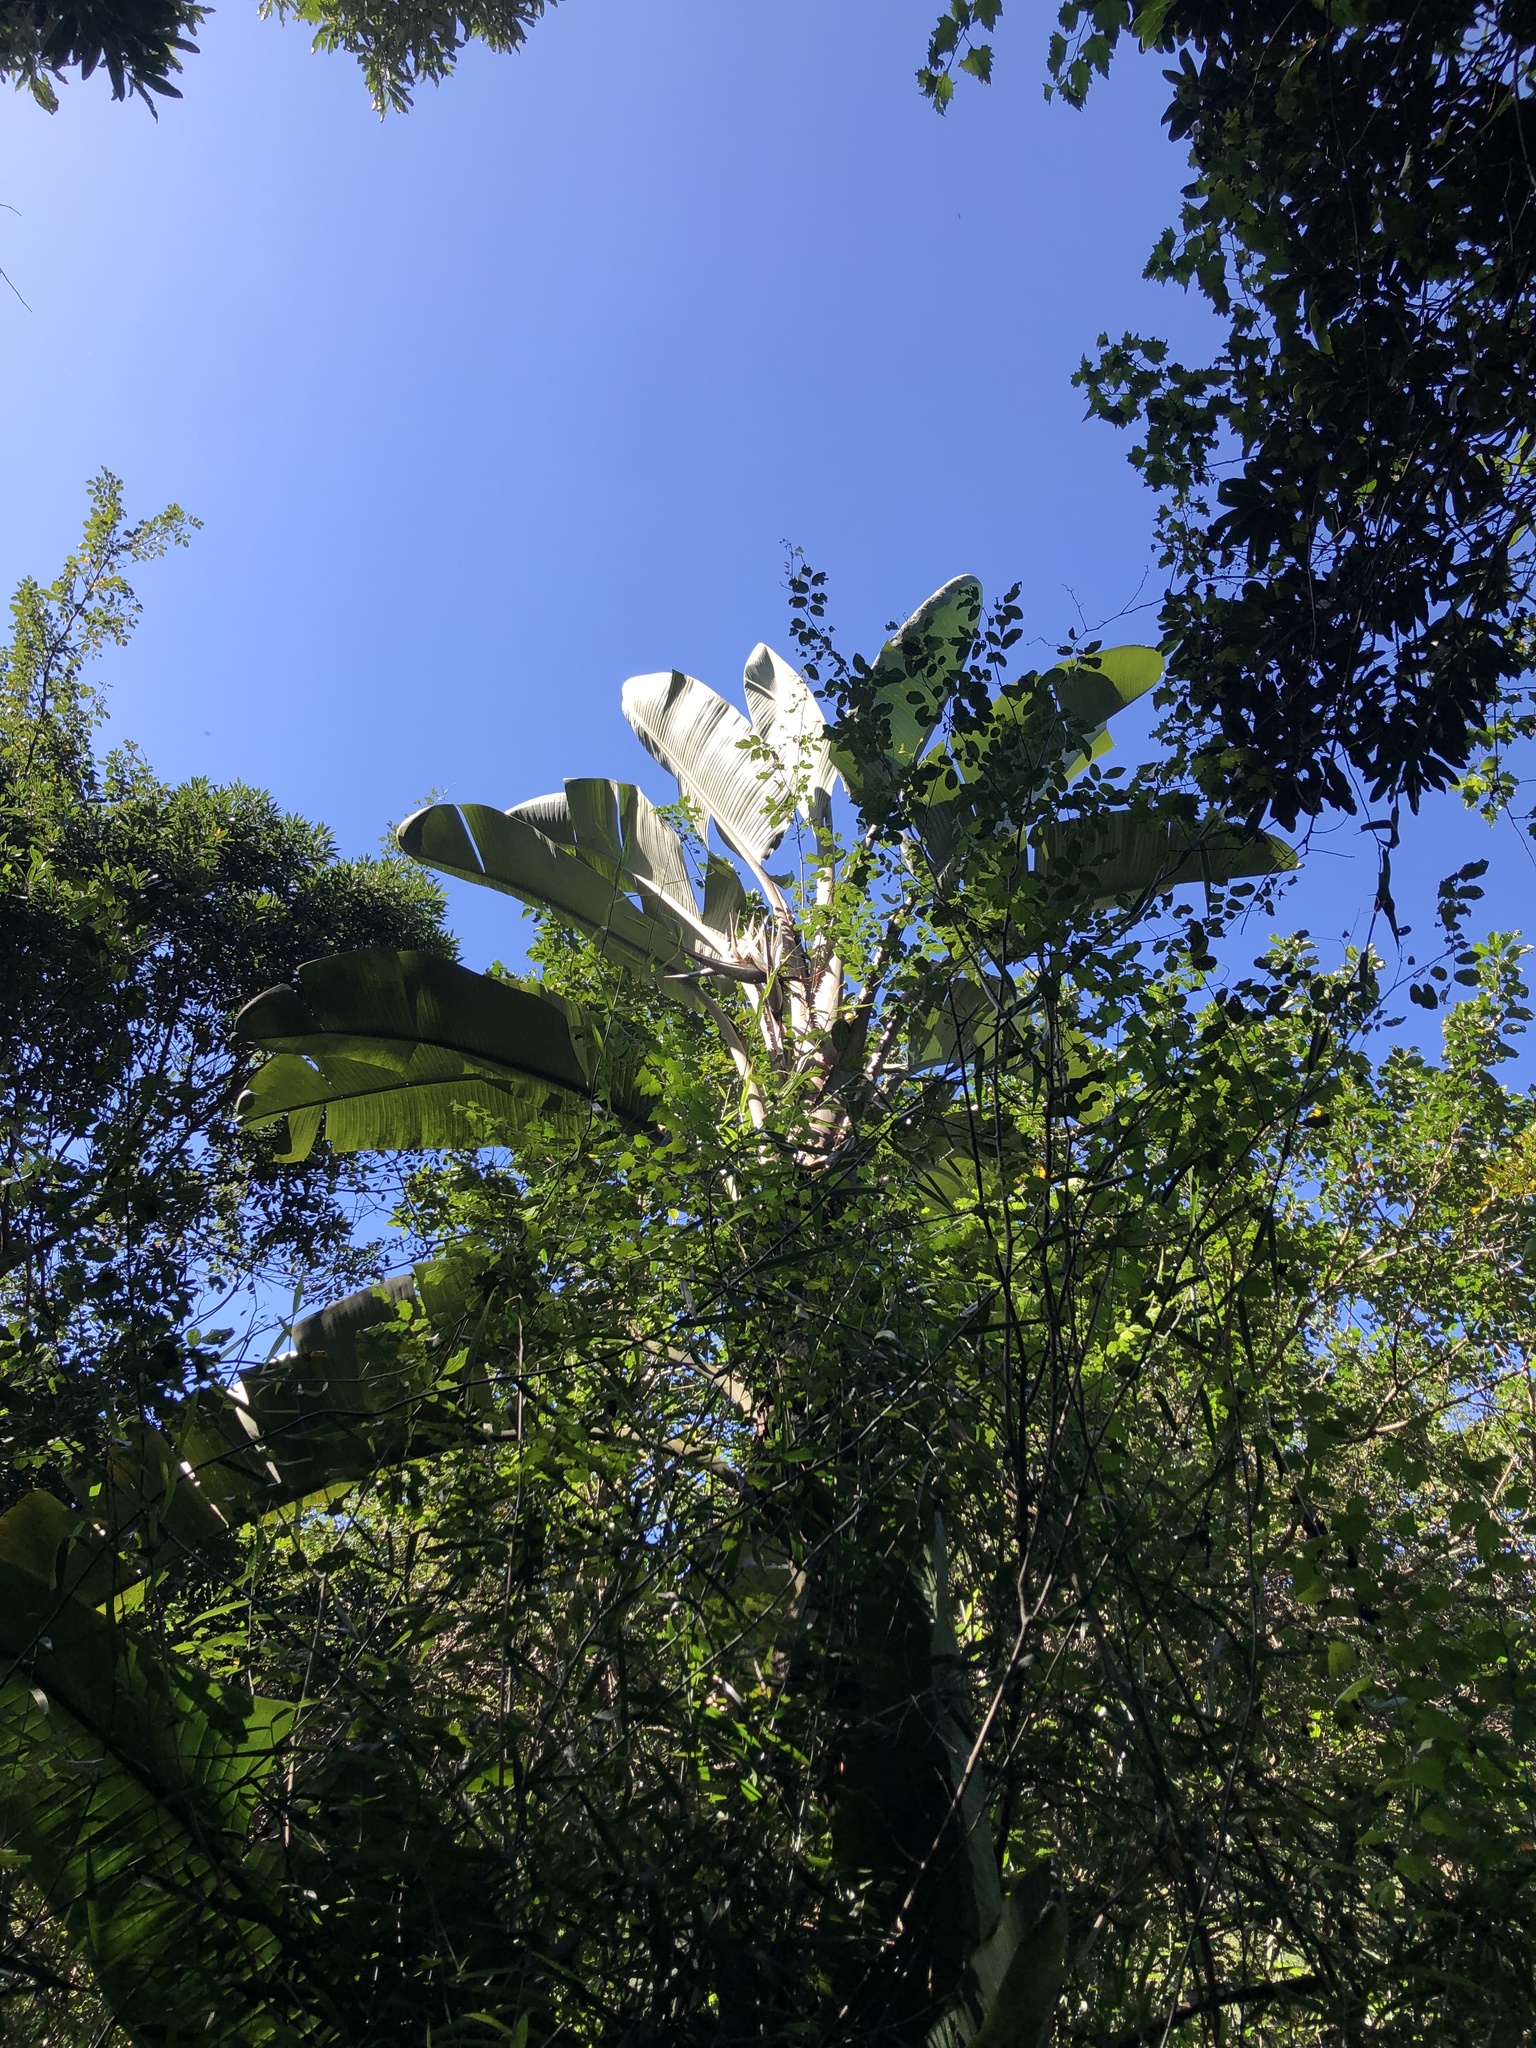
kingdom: Plantae
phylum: Tracheophyta
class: Liliopsida
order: Zingiberales
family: Strelitziaceae
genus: Strelitzia
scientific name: Strelitzia nicolai
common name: Bird-of-paradise tree
